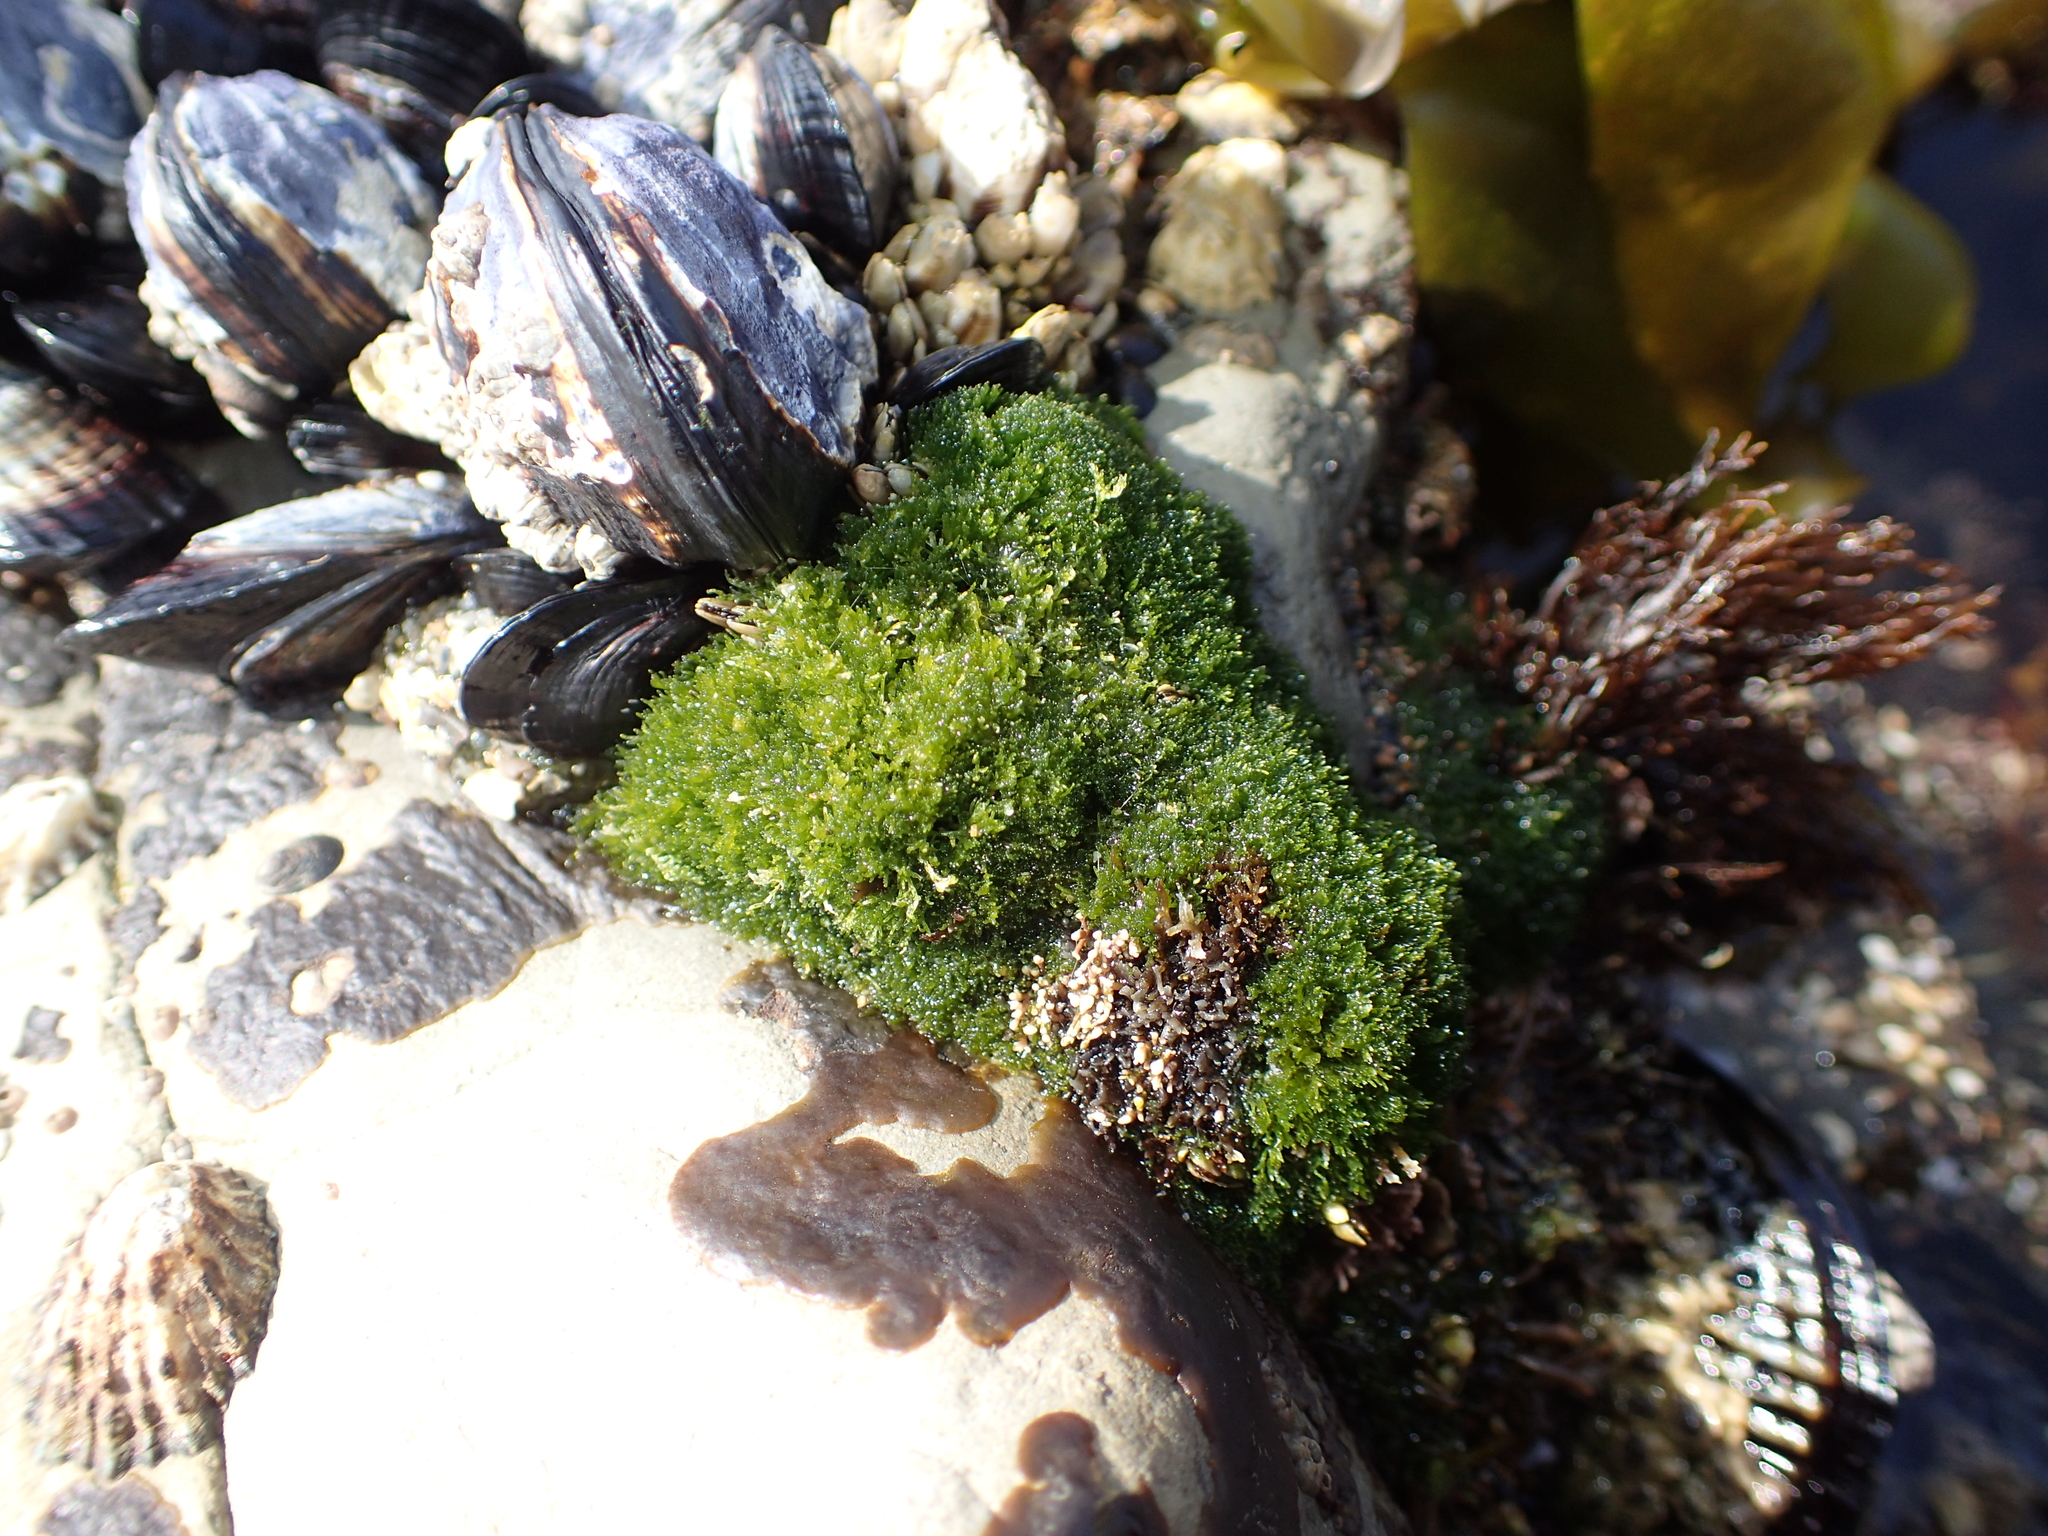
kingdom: Plantae
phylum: Chlorophyta
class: Ulvophyceae
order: Cladophorales
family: Cladophoraceae
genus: Cladophora
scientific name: Cladophora columbiana
